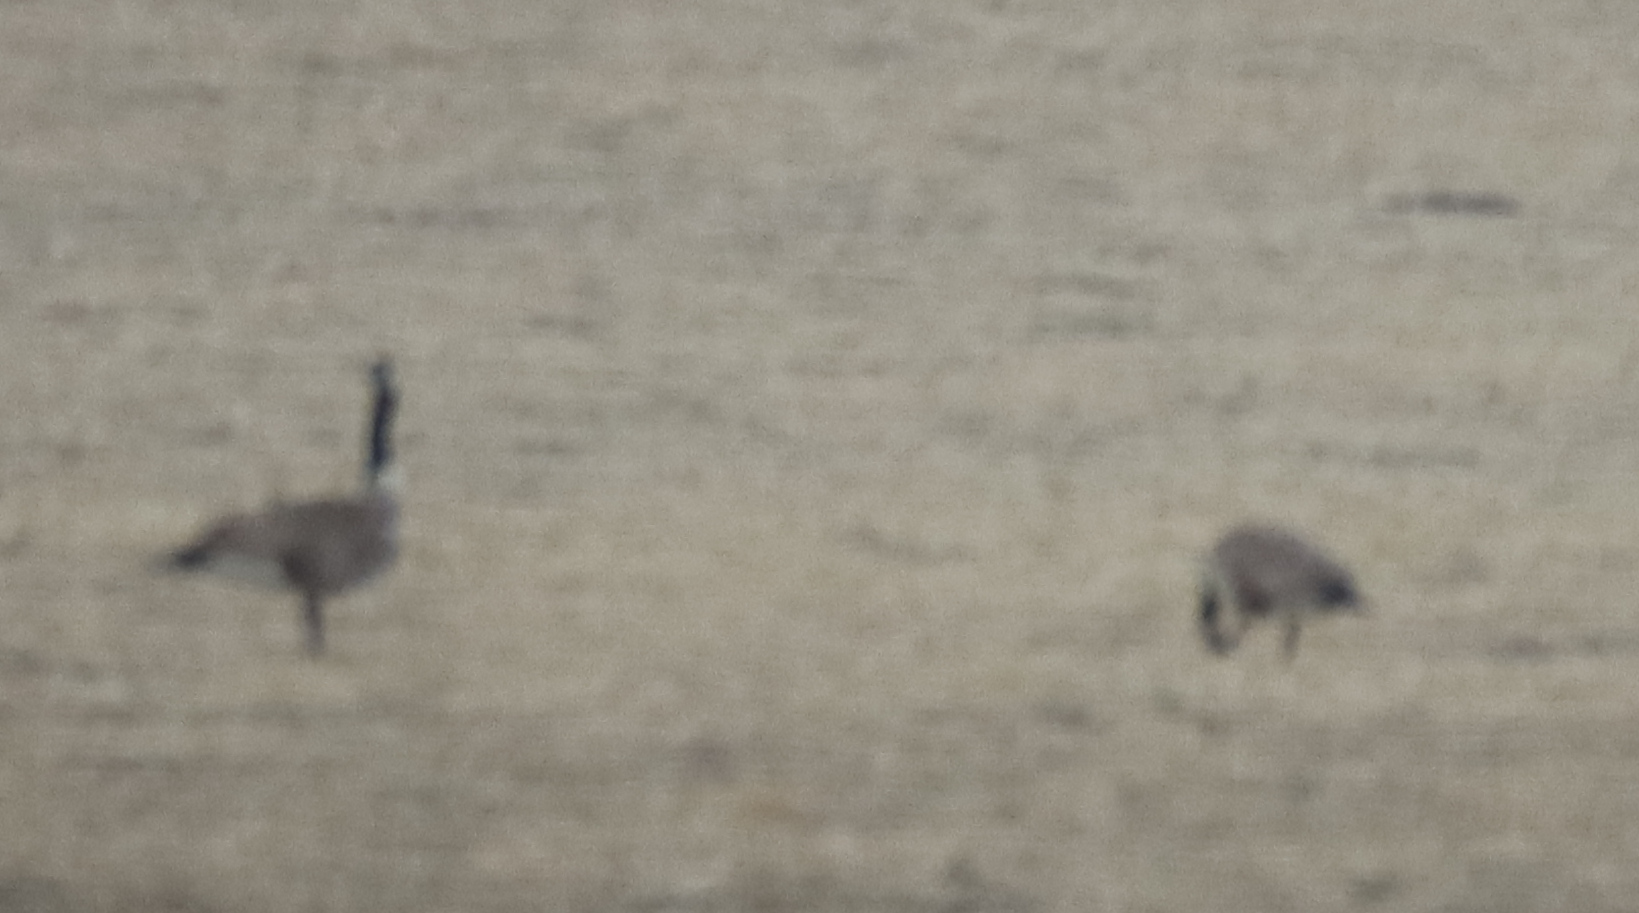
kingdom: Animalia
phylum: Chordata
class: Aves
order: Anseriformes
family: Anatidae
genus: Branta
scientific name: Branta canadensis
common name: Canada goose
